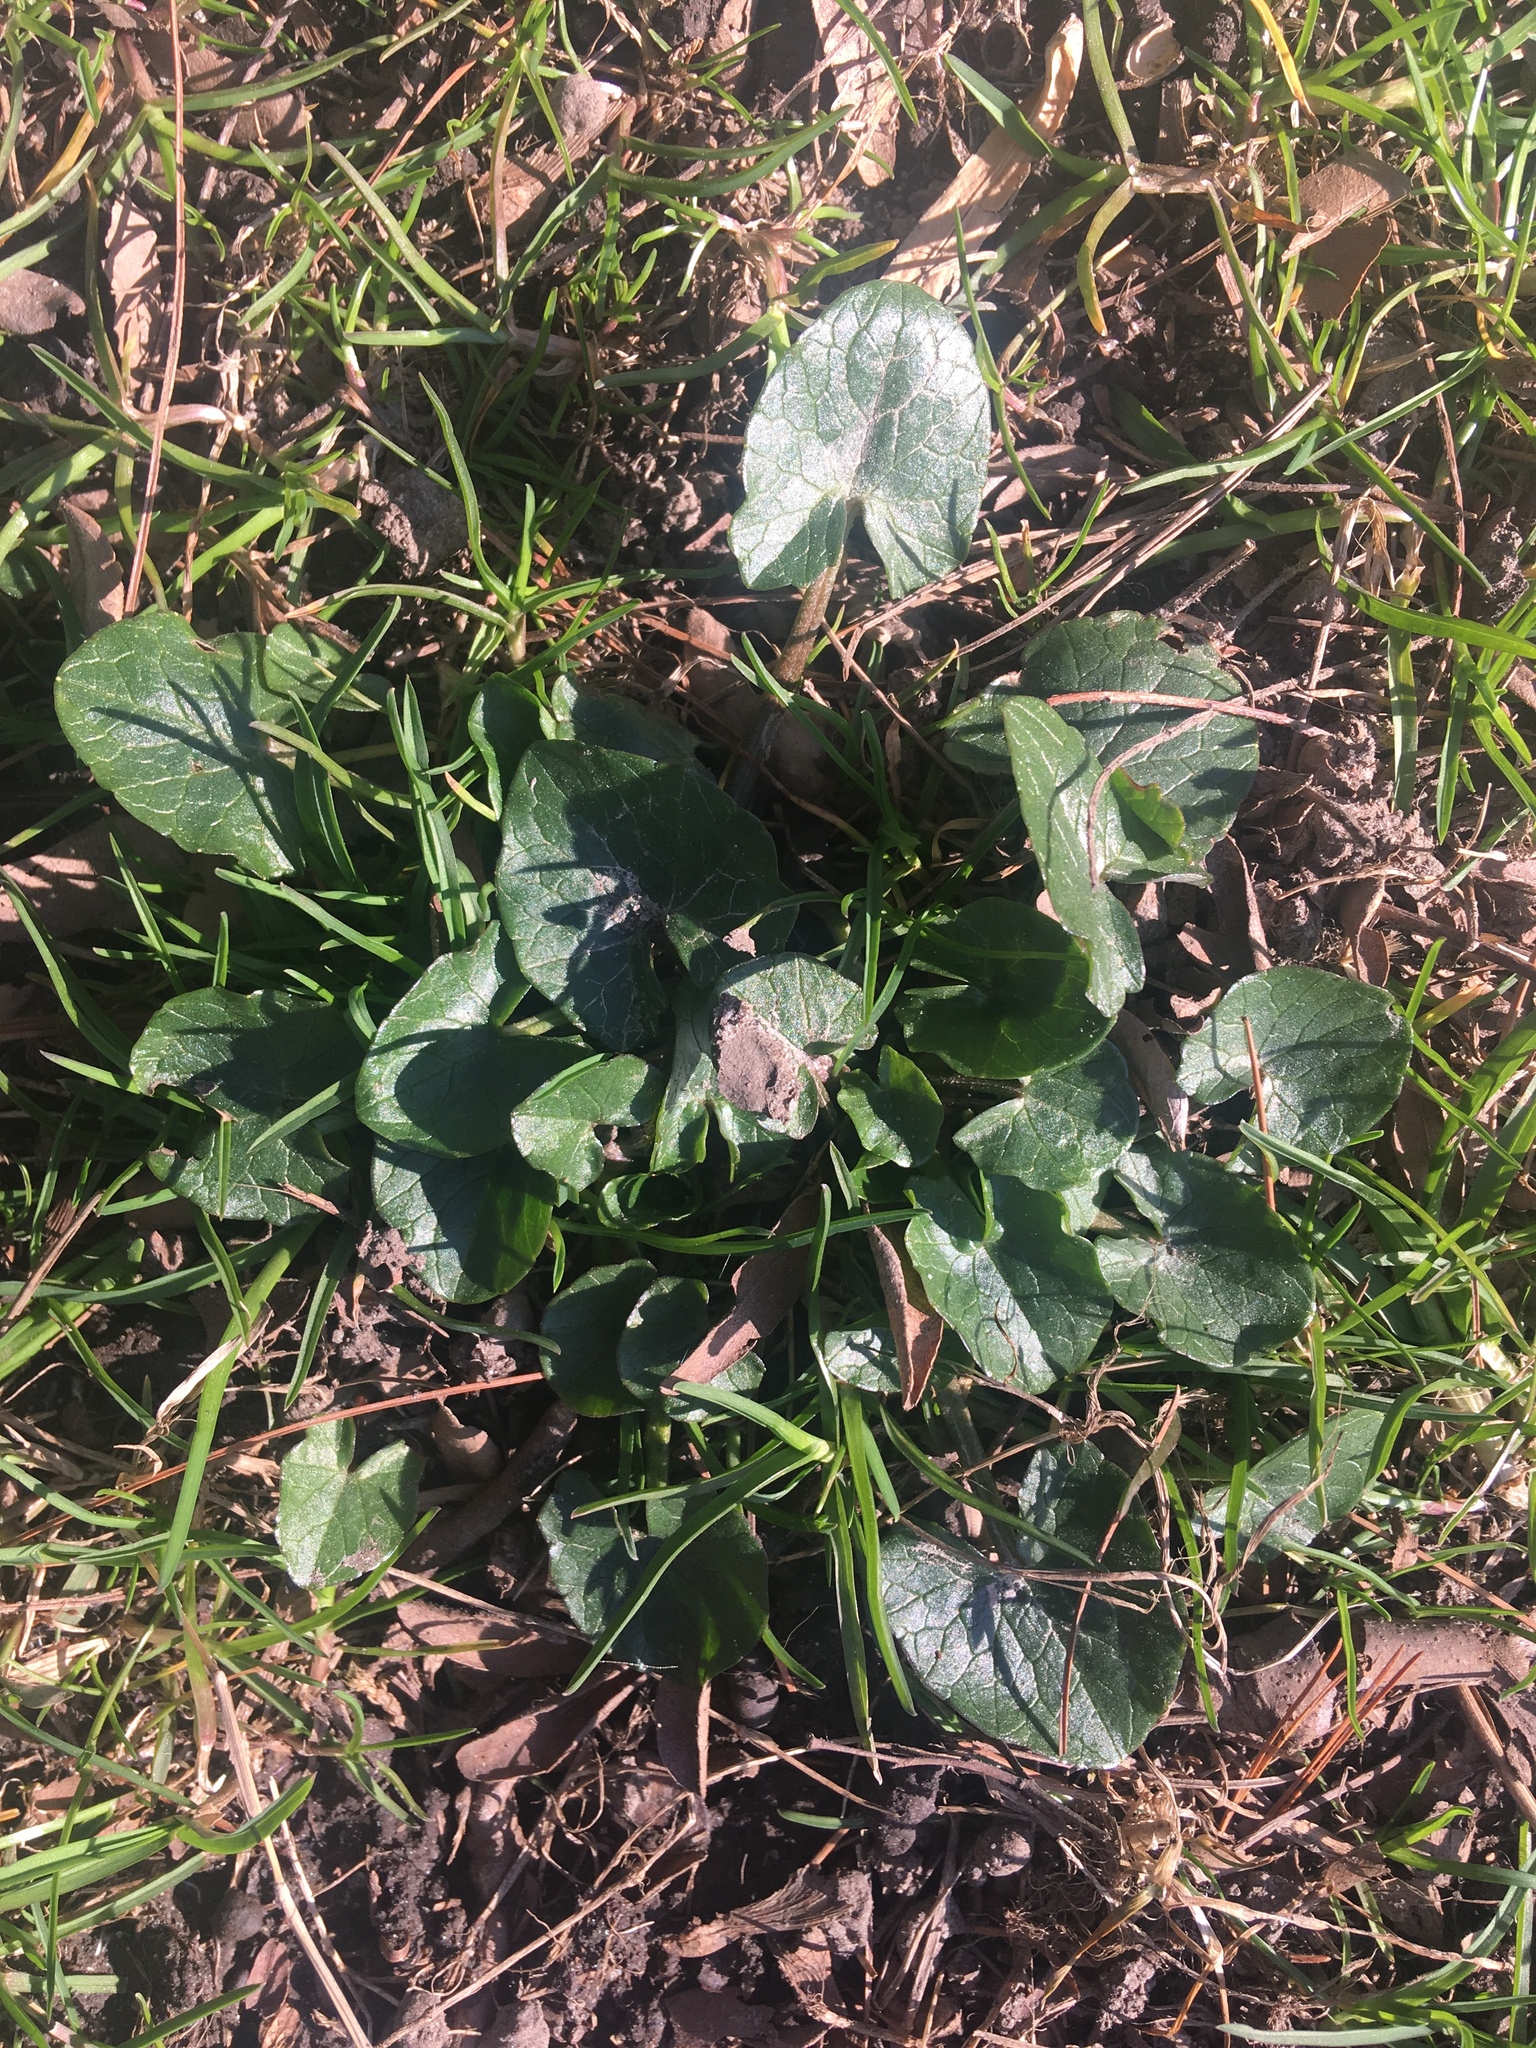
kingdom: Plantae
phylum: Tracheophyta
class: Magnoliopsida
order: Ranunculales
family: Ranunculaceae
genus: Ficaria
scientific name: Ficaria verna
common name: Lesser celandine
